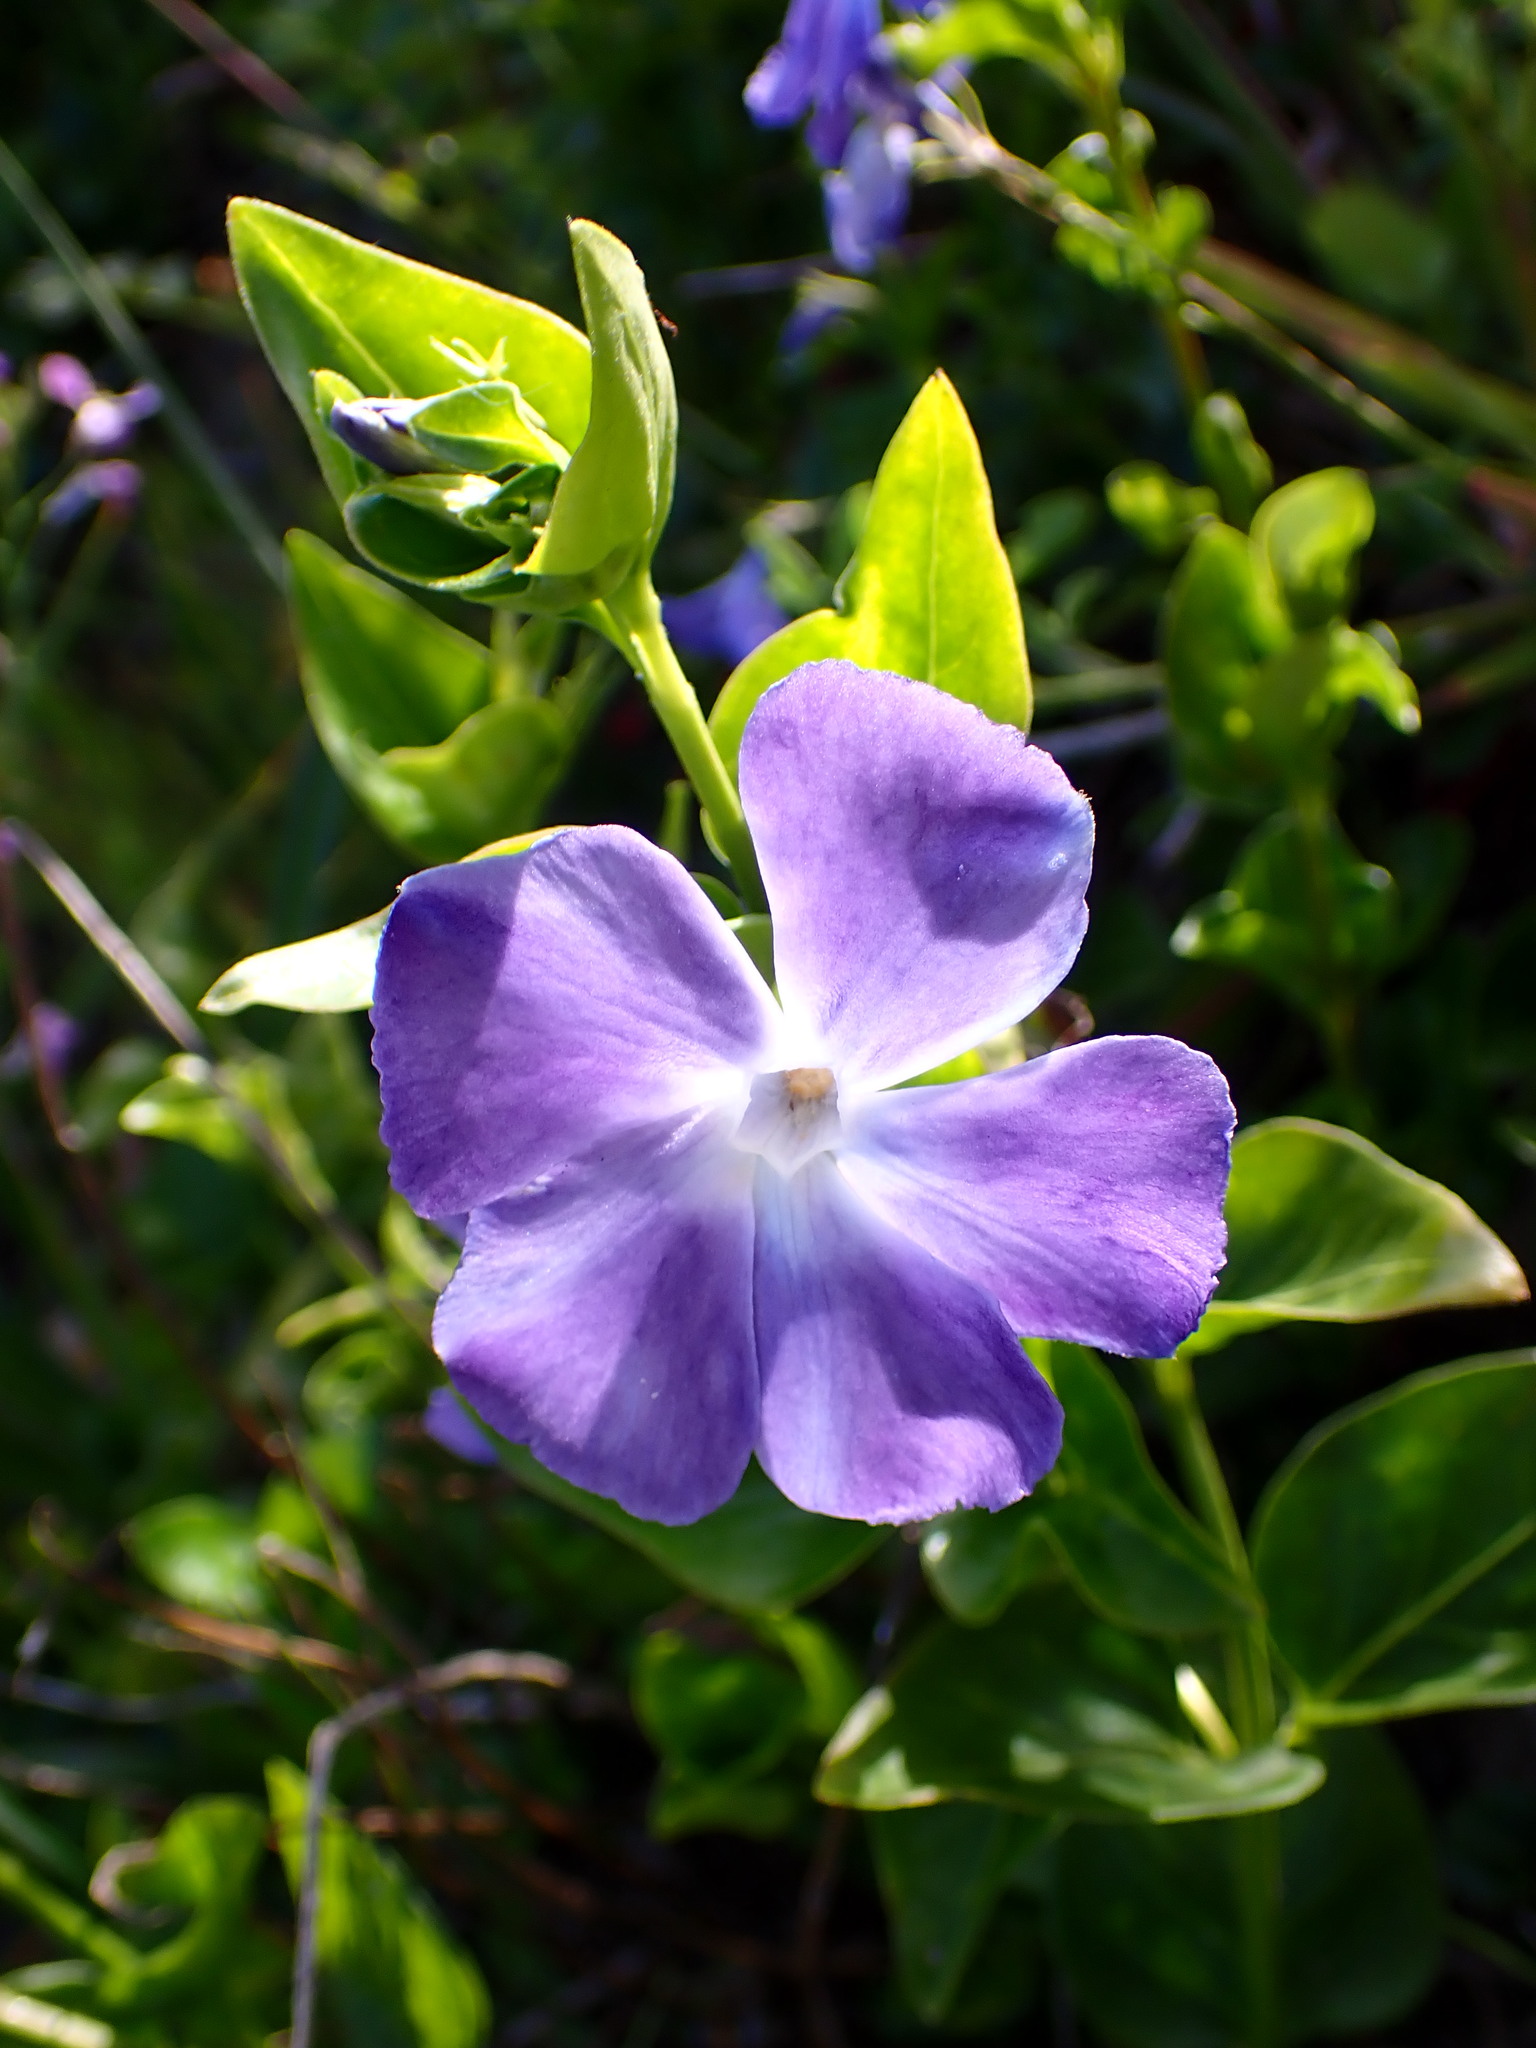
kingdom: Plantae
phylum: Tracheophyta
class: Magnoliopsida
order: Gentianales
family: Apocynaceae
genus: Vinca
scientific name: Vinca major
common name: Greater periwinkle
